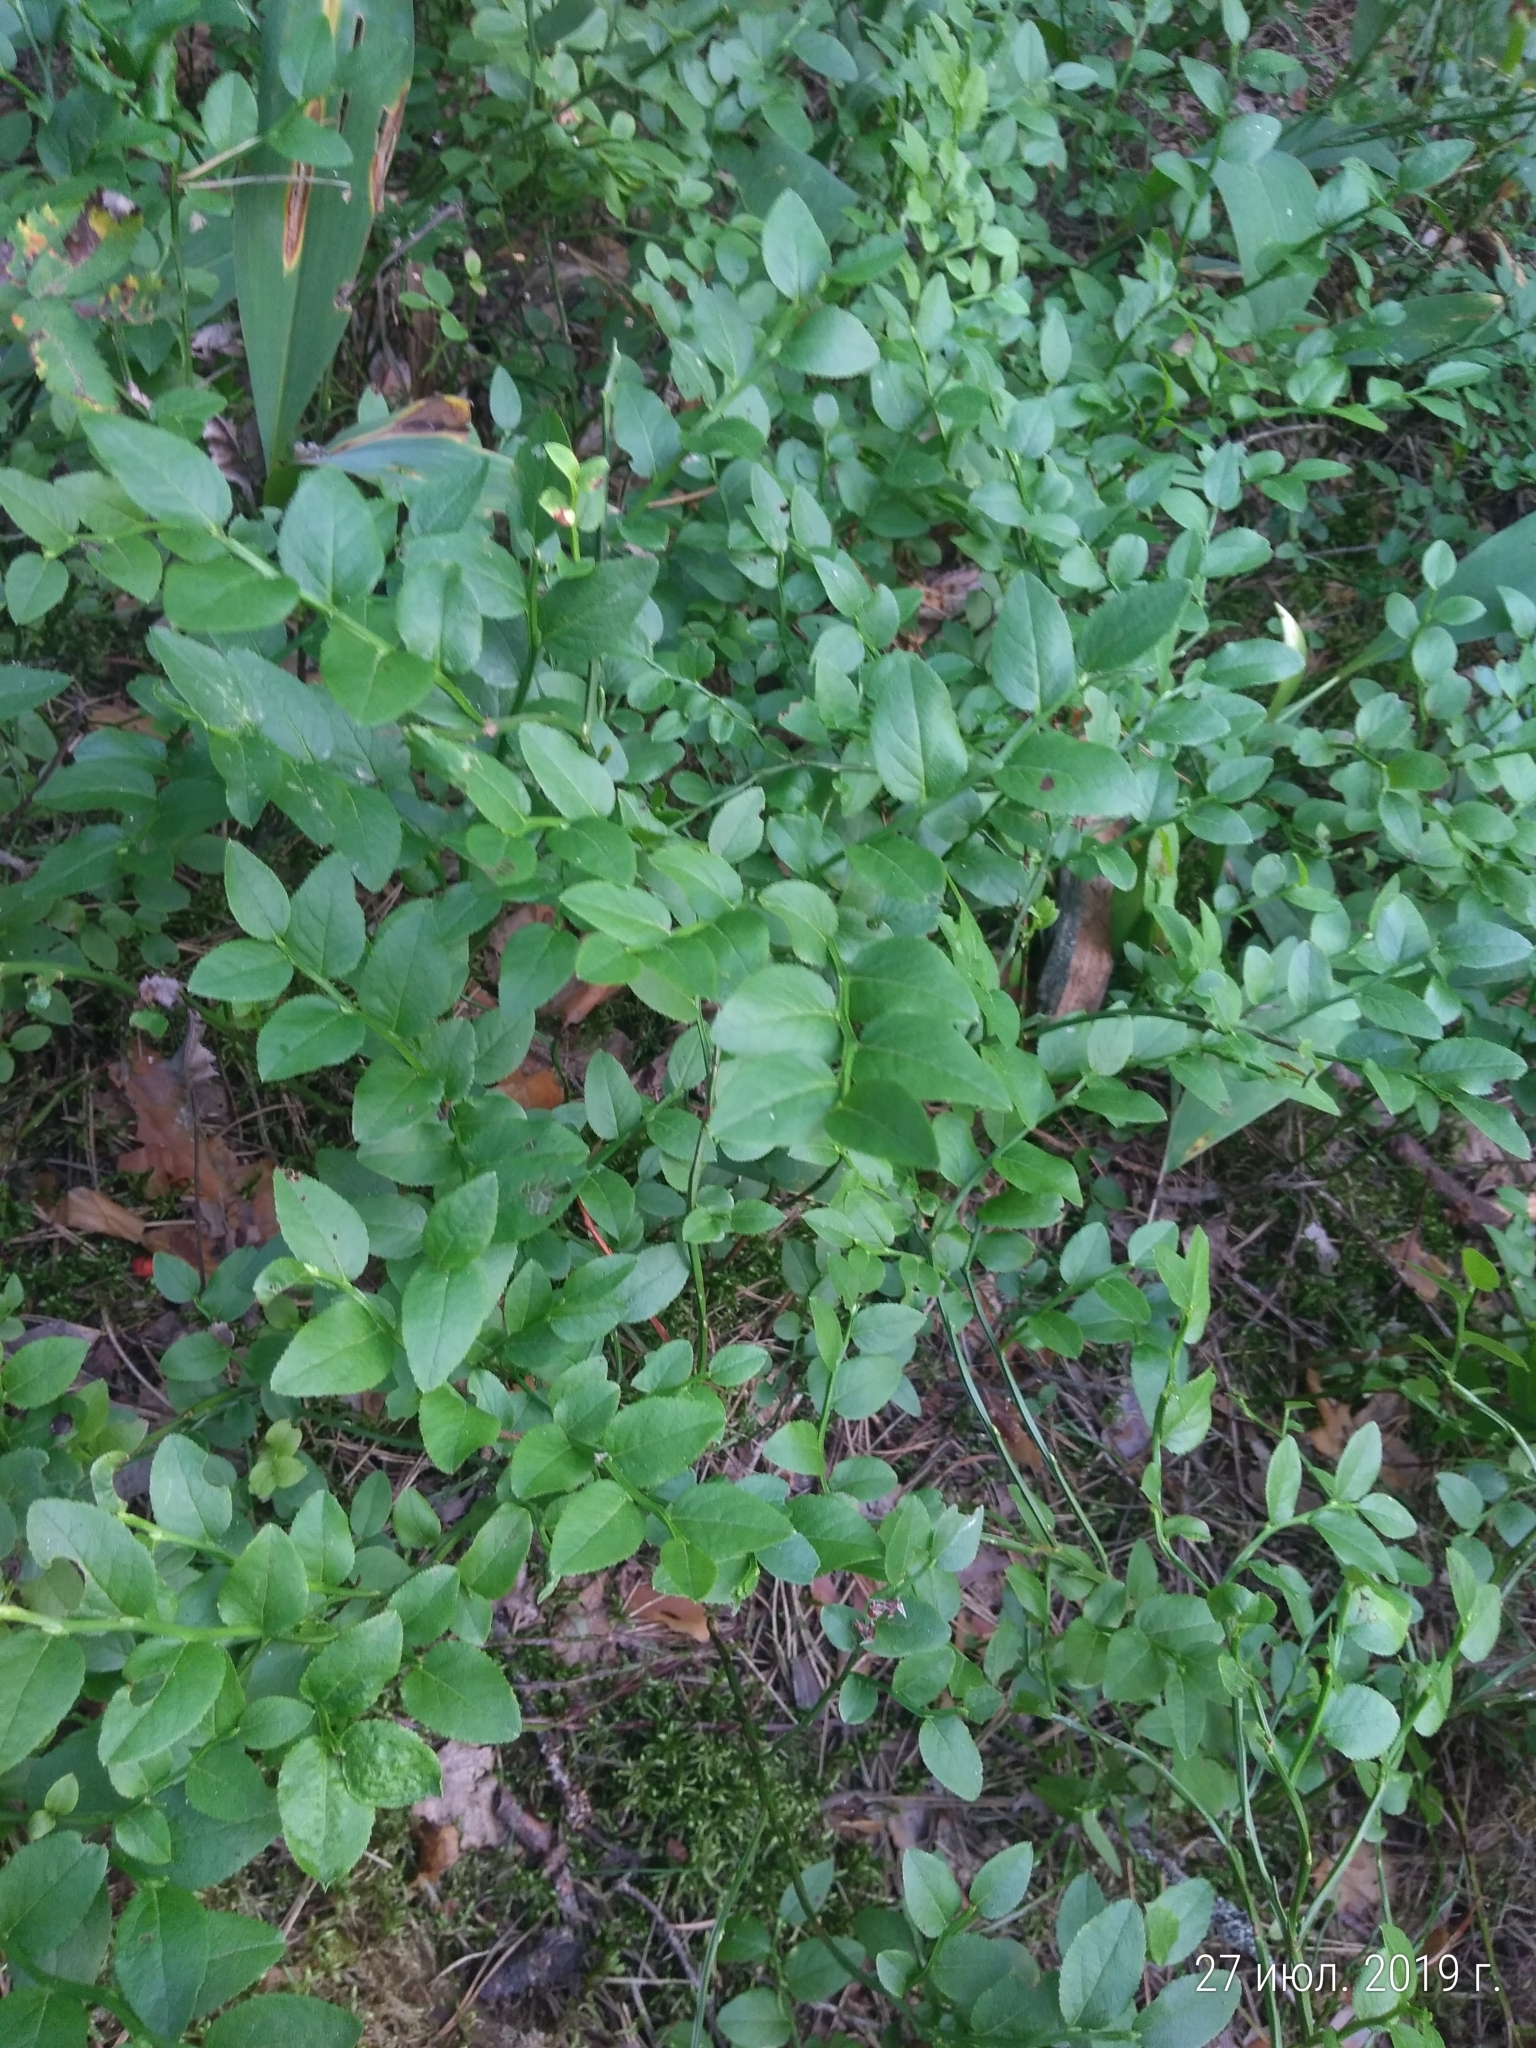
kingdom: Plantae
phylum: Tracheophyta
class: Magnoliopsida
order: Ericales
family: Ericaceae
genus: Vaccinium
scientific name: Vaccinium myrtillus
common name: Bilberry
